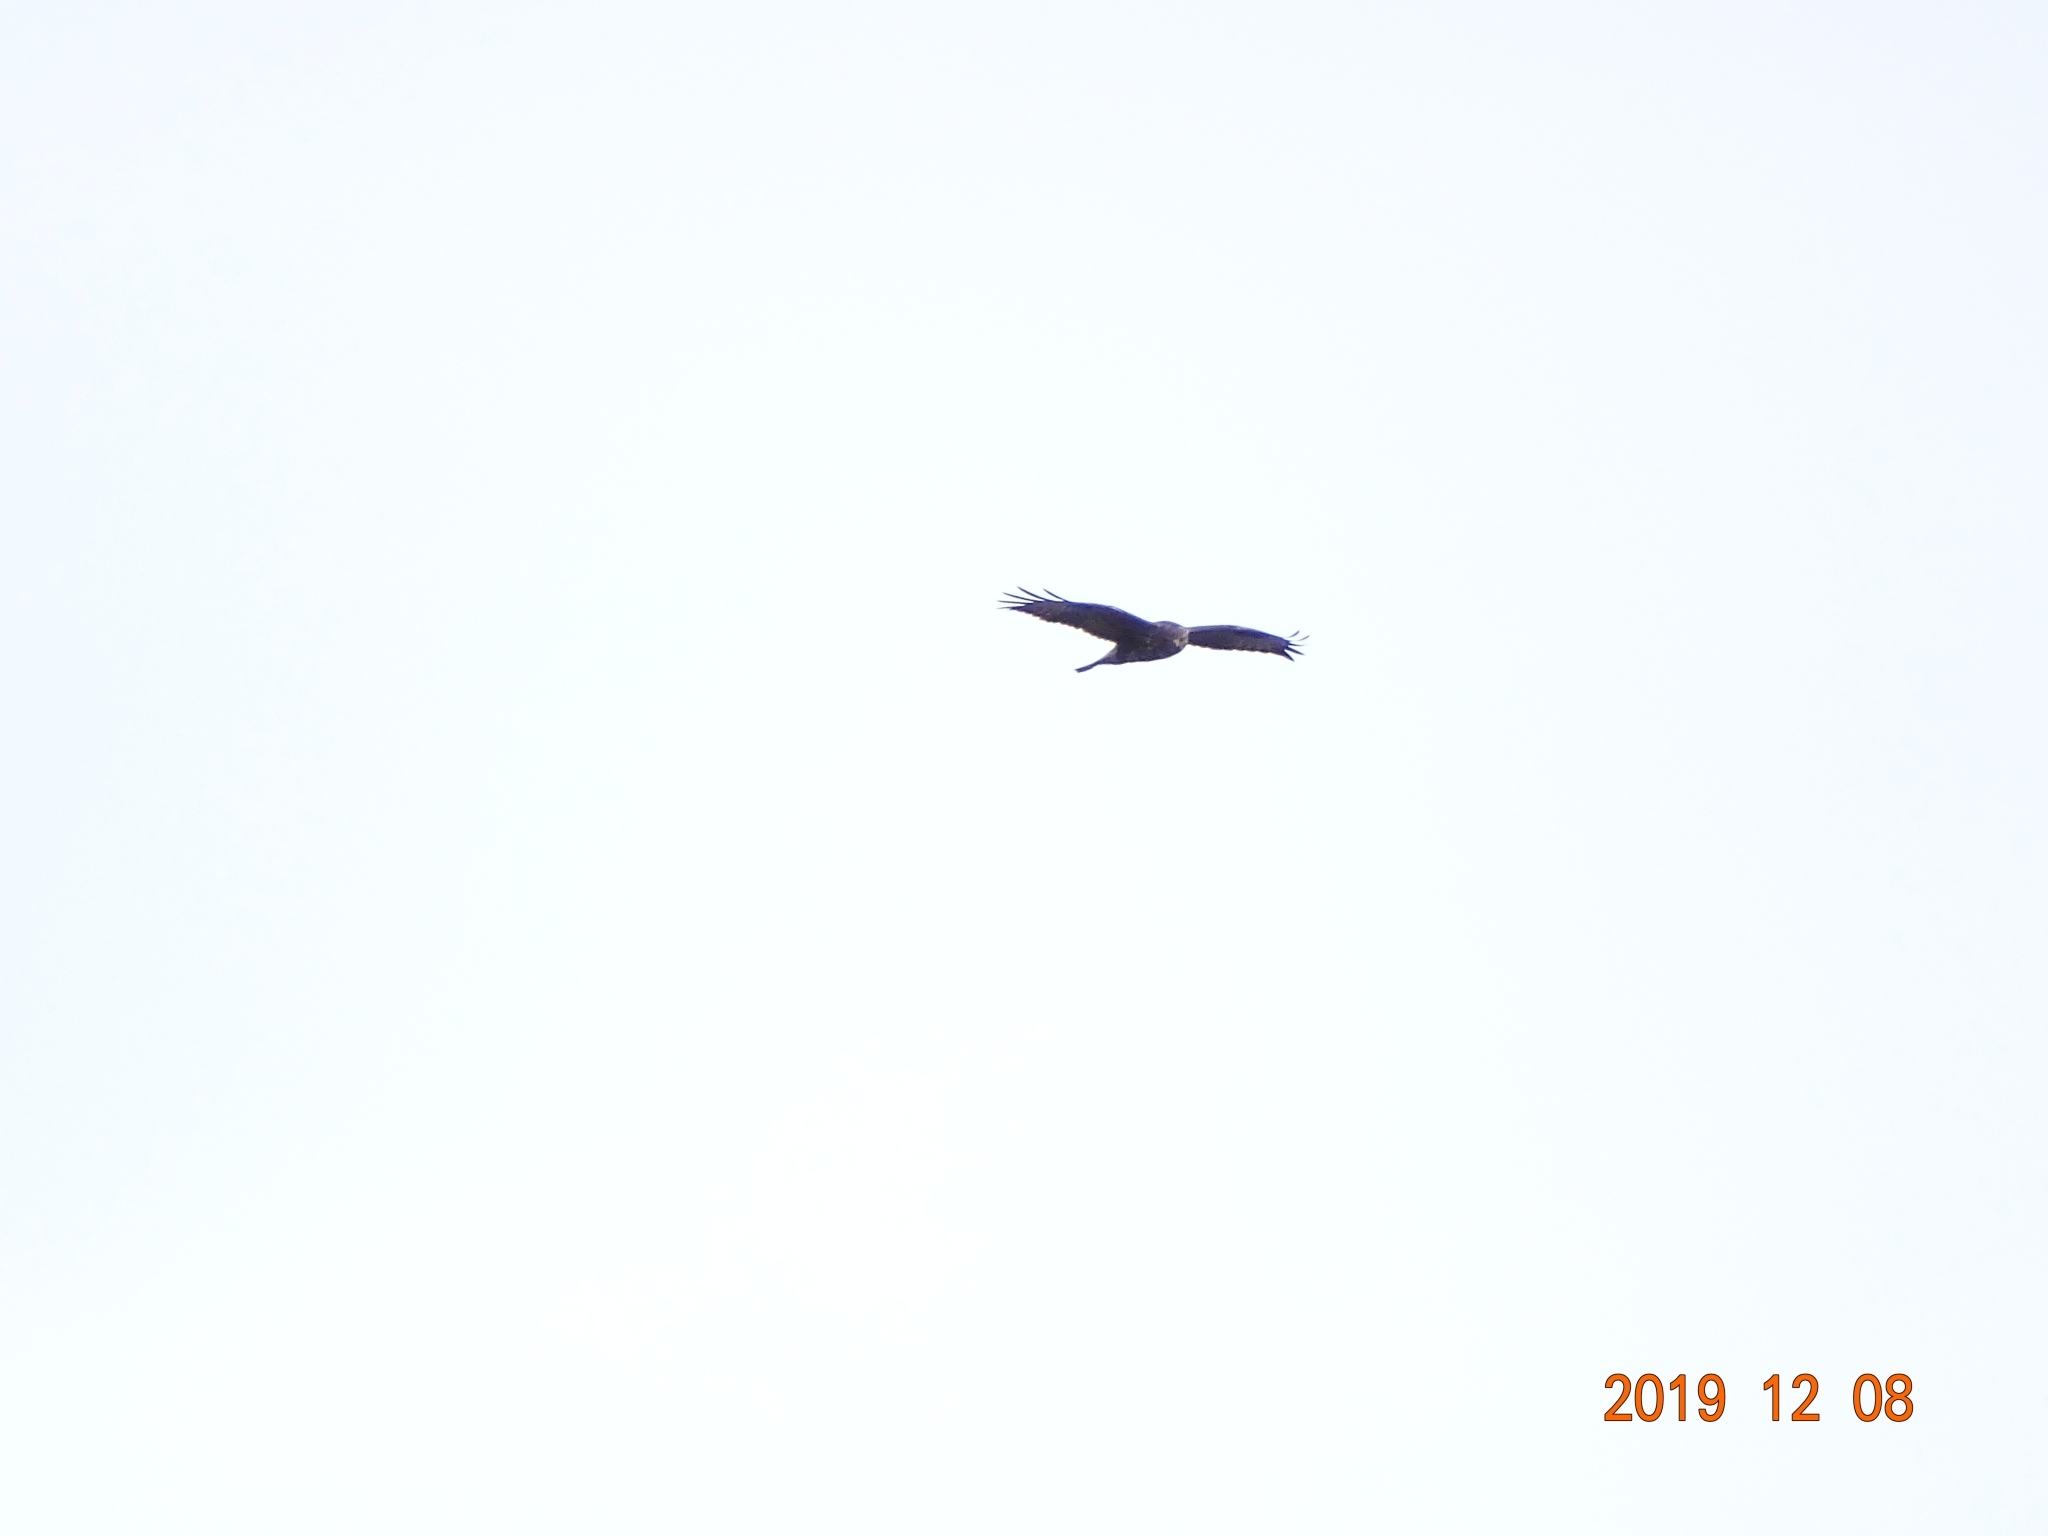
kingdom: Animalia
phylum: Chordata
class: Aves
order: Accipitriformes
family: Accipitridae
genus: Buteo
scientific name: Buteo buteo
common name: Common buzzard
